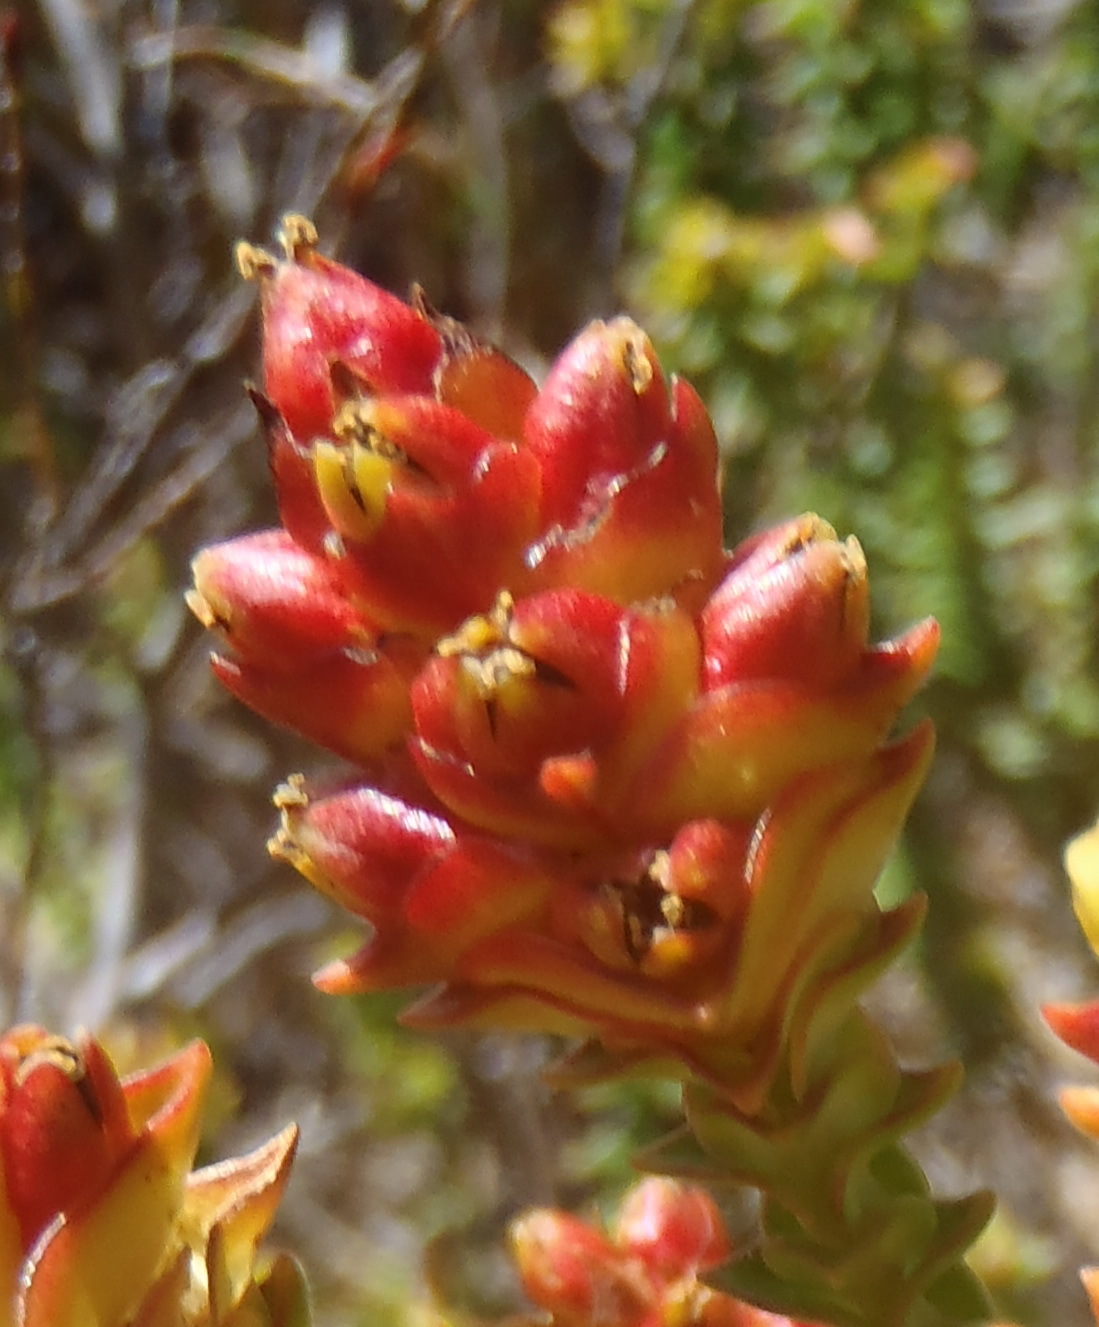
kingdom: Plantae
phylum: Tracheophyta
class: Magnoliopsida
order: Myrtales
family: Penaeaceae
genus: Penaea
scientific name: Penaea mucronata
